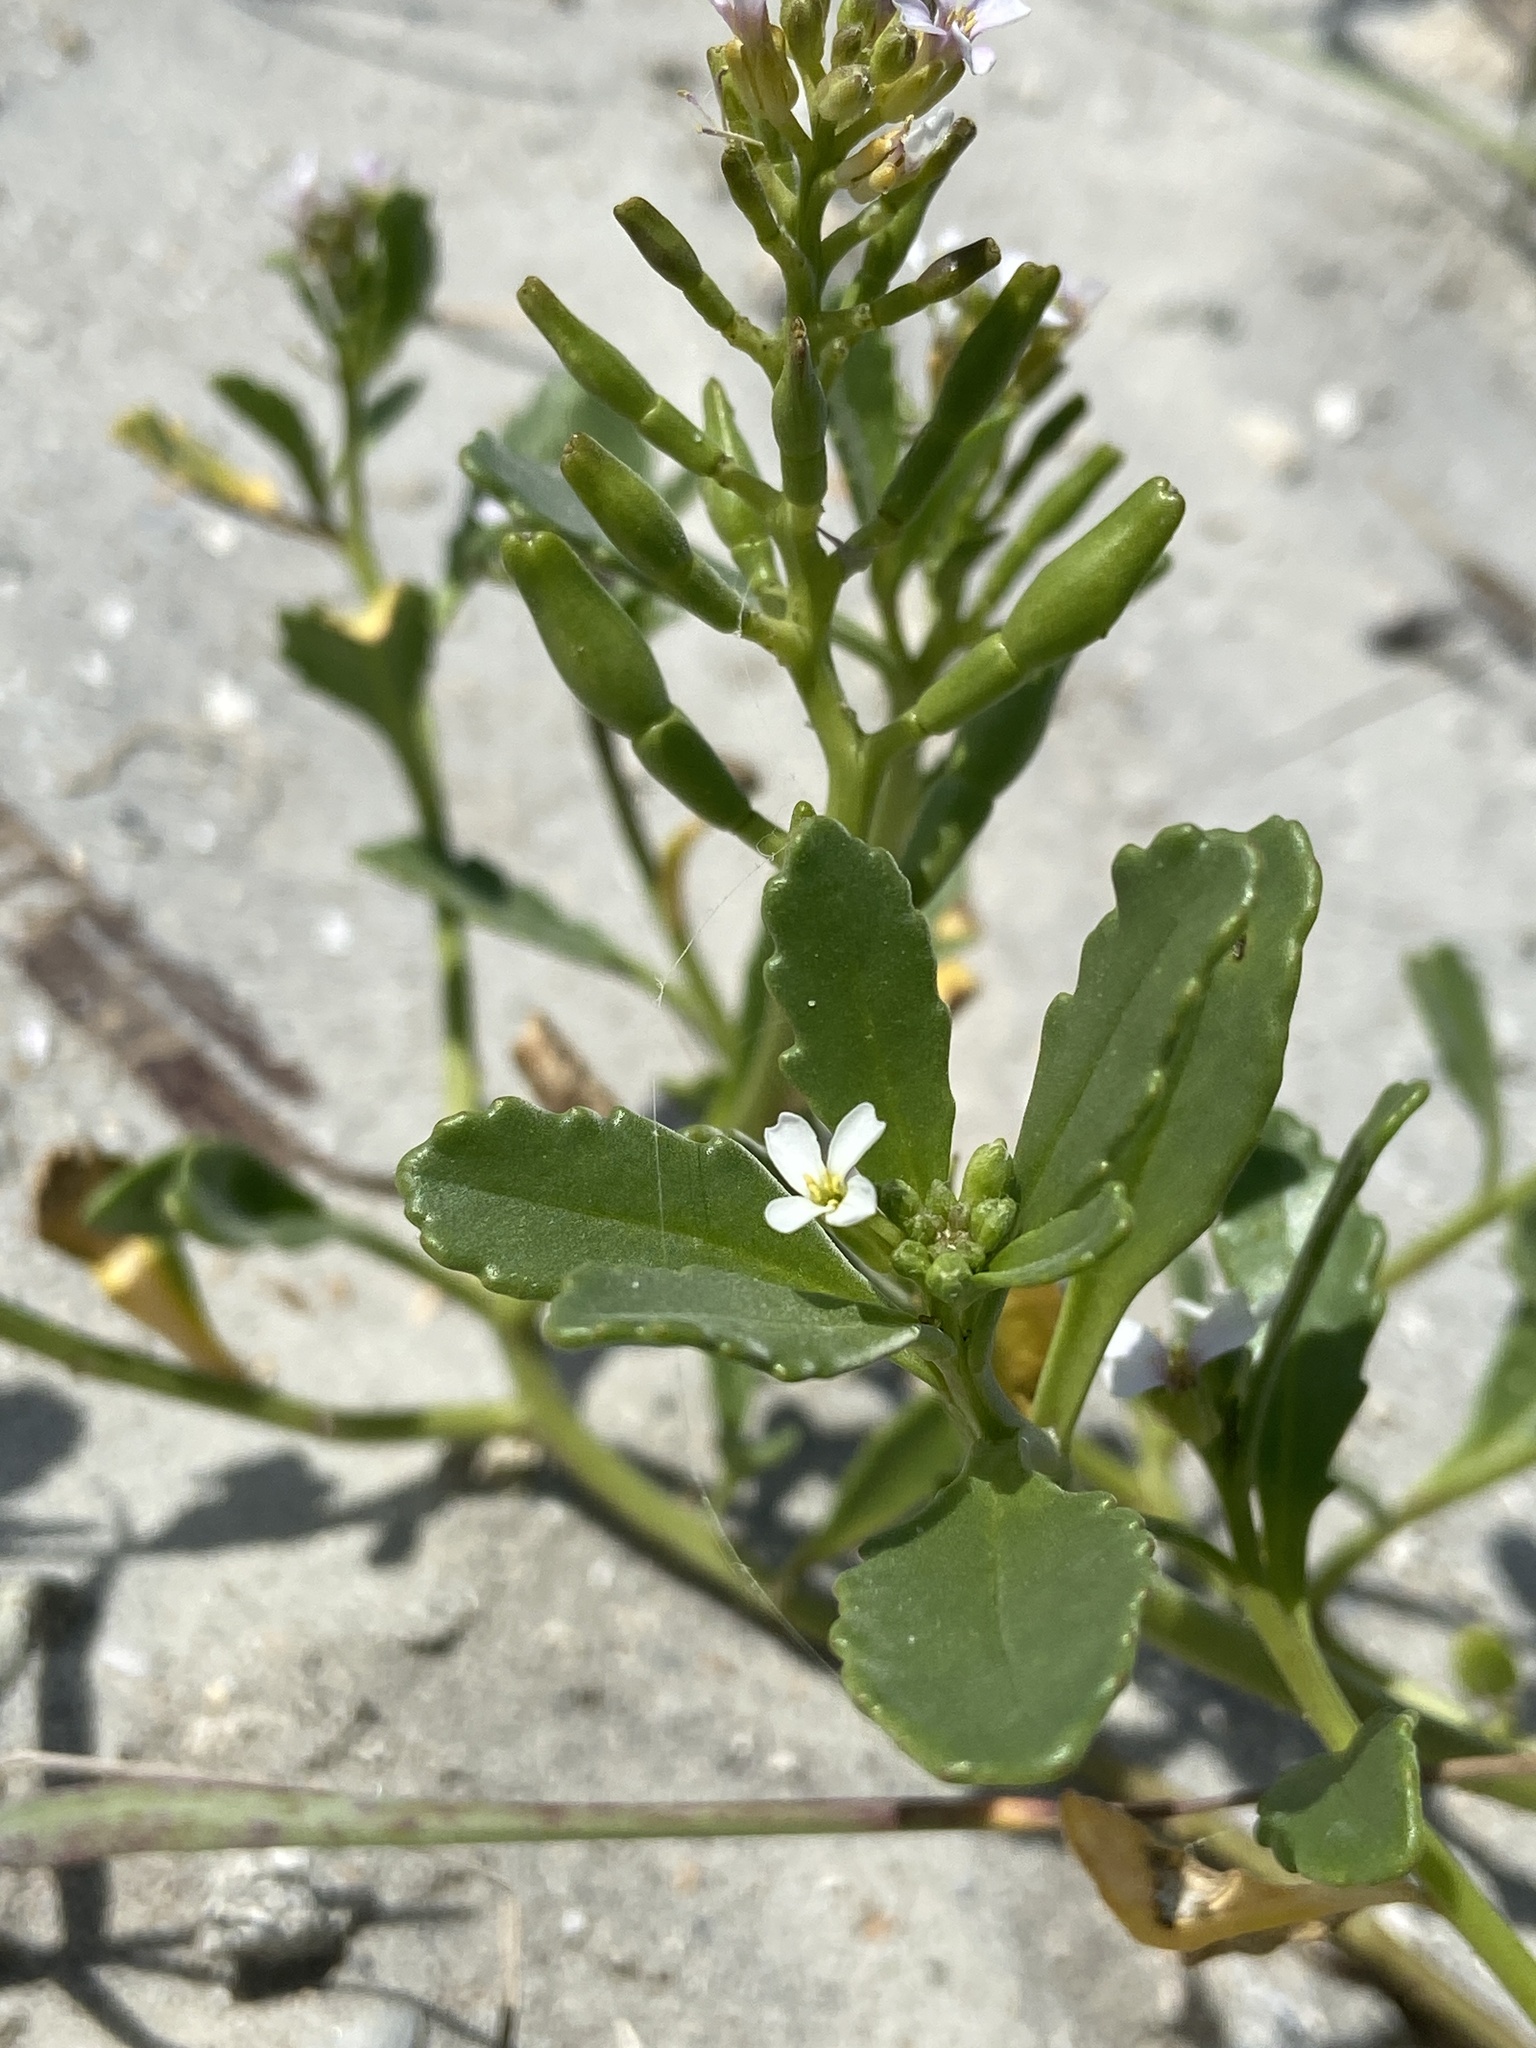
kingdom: Plantae
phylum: Tracheophyta
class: Magnoliopsida
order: Brassicales
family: Brassicaceae
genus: Cakile
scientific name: Cakile edentula
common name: American sea rocket
